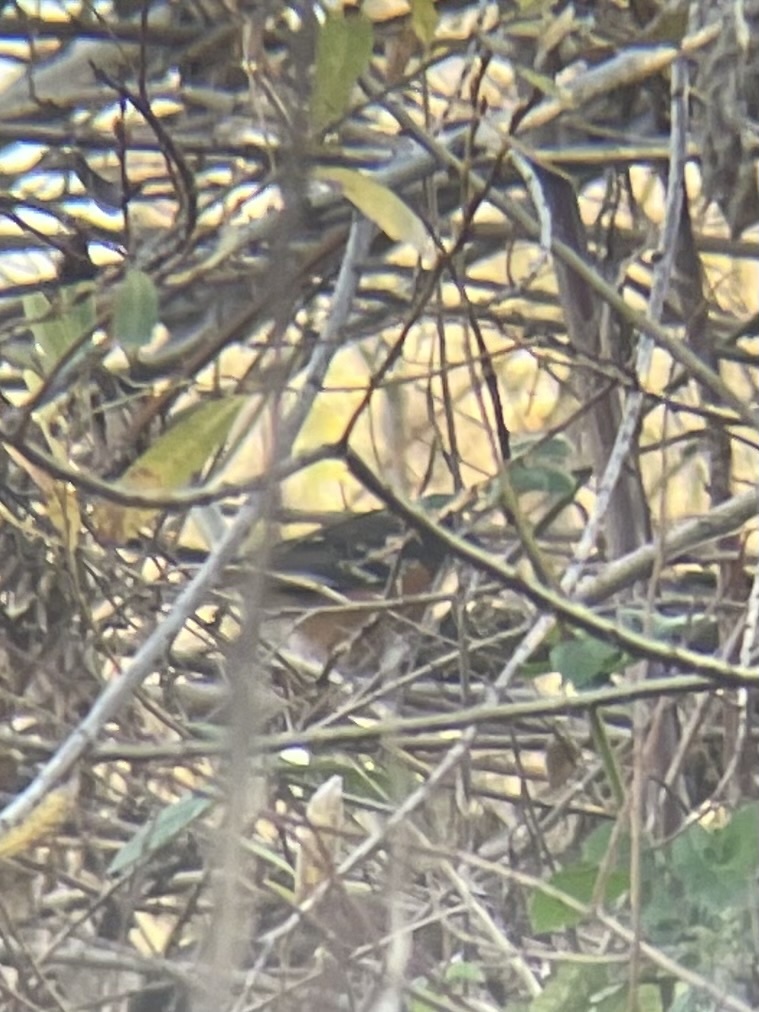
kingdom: Animalia
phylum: Chordata
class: Aves
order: Passeriformes
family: Passerellidae
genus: Pipilo
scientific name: Pipilo maculatus
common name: Spotted towhee
